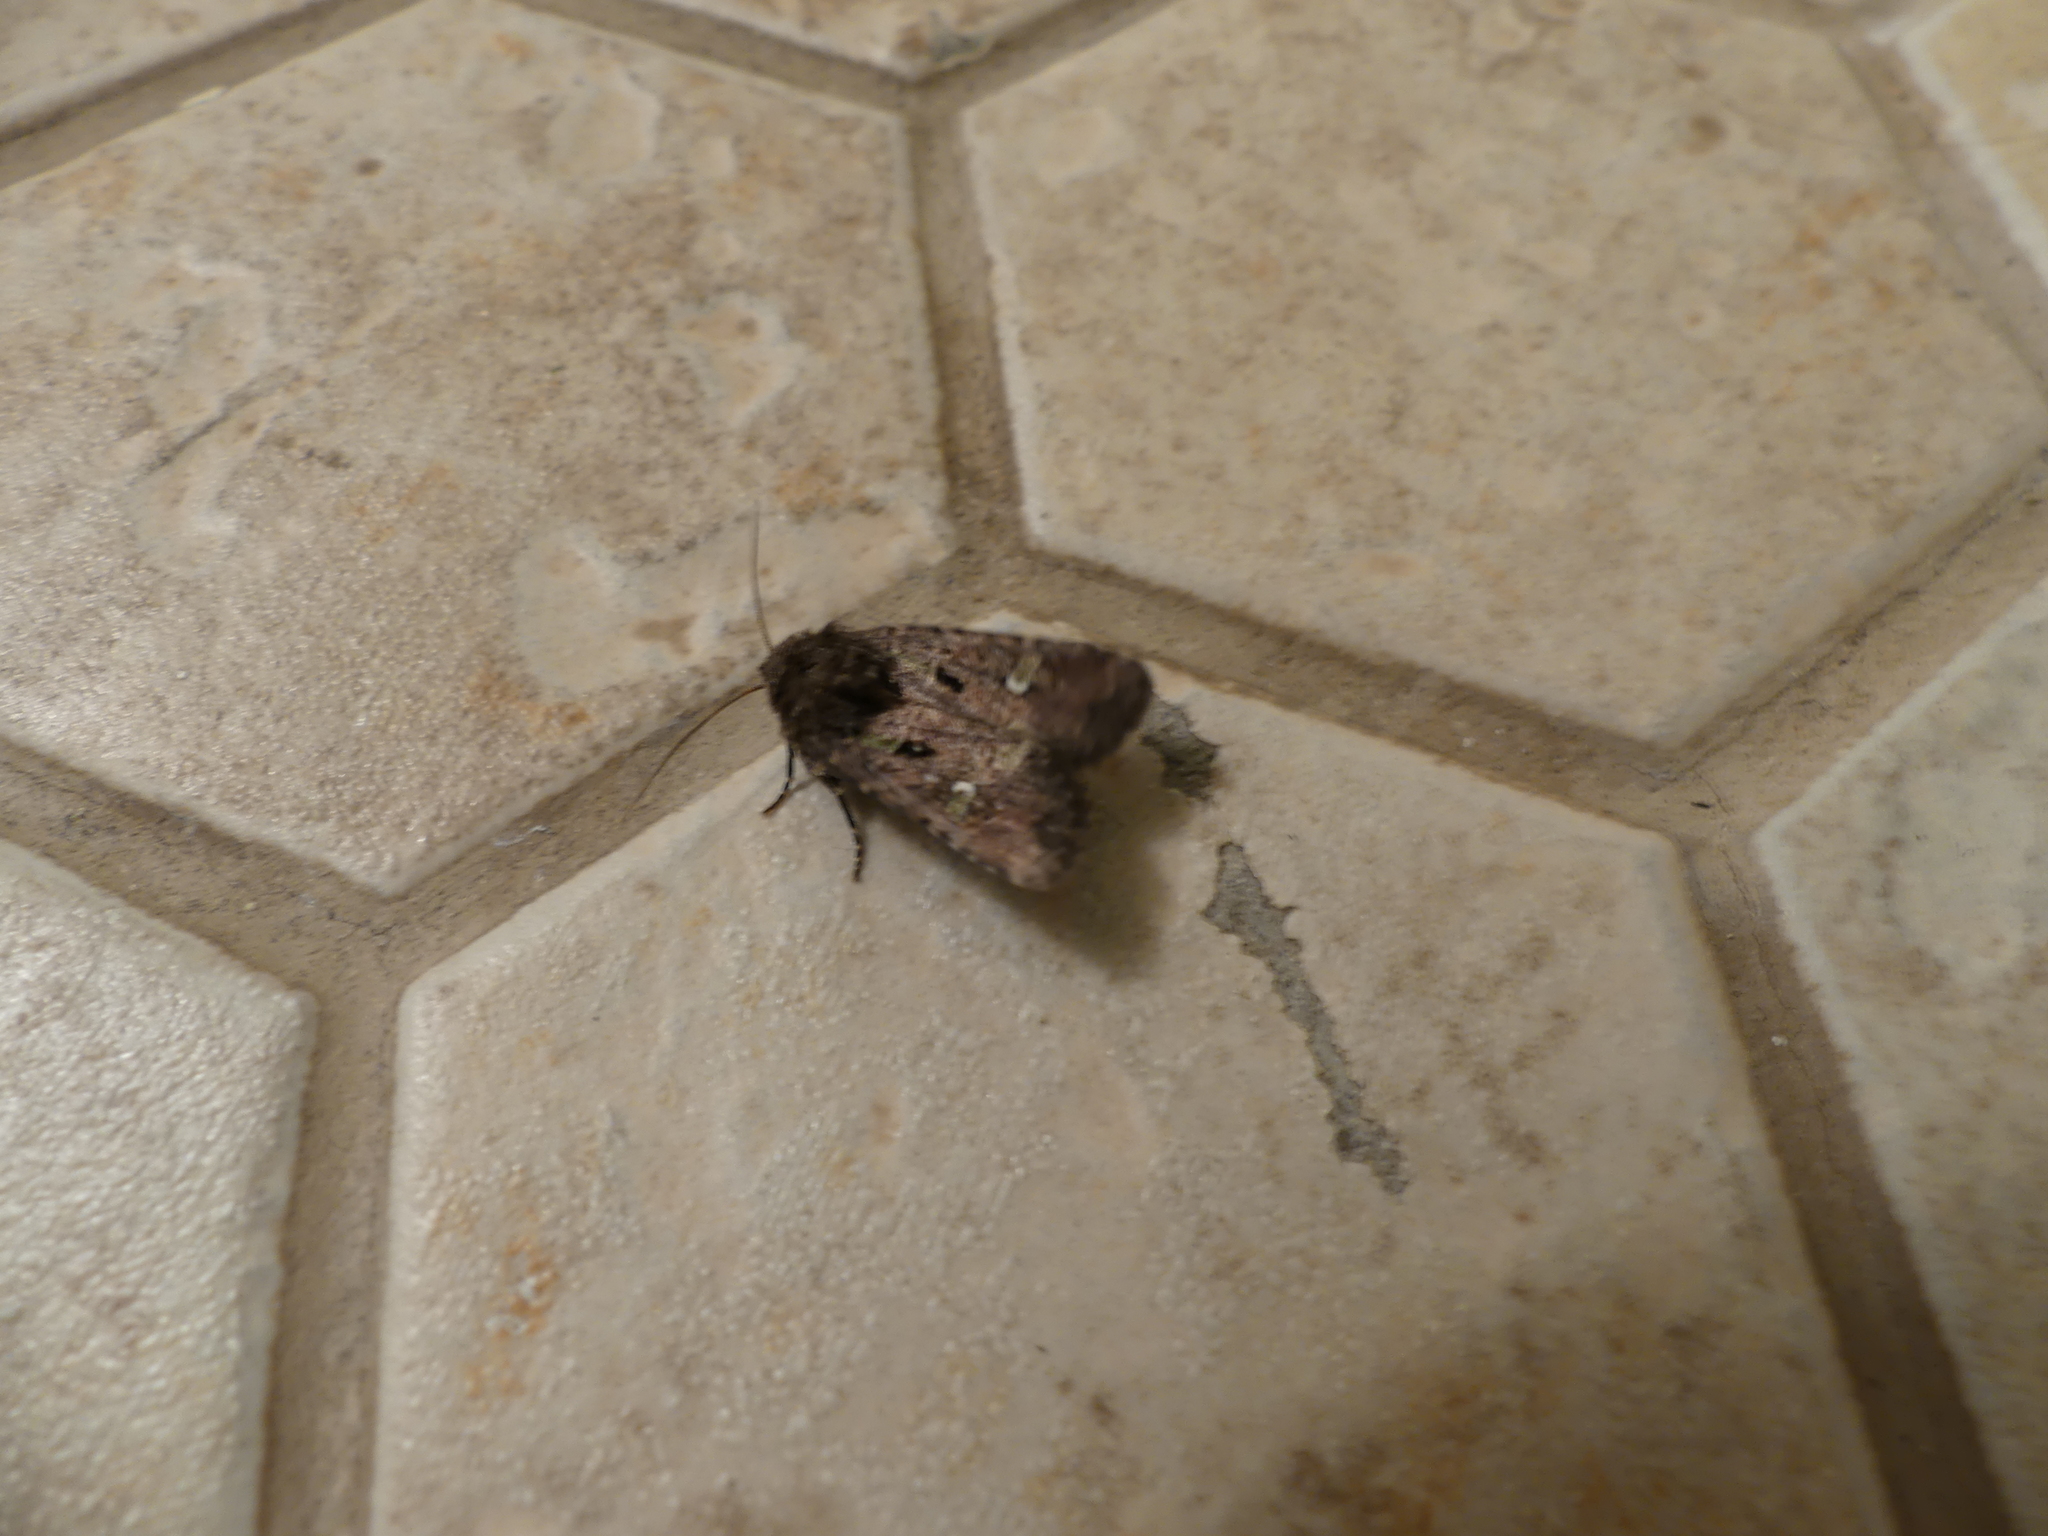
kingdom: Animalia
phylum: Arthropoda
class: Insecta
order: Lepidoptera
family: Noctuidae
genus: Lacinipolia
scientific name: Lacinipolia renigera
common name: Kidney-spotted minor
